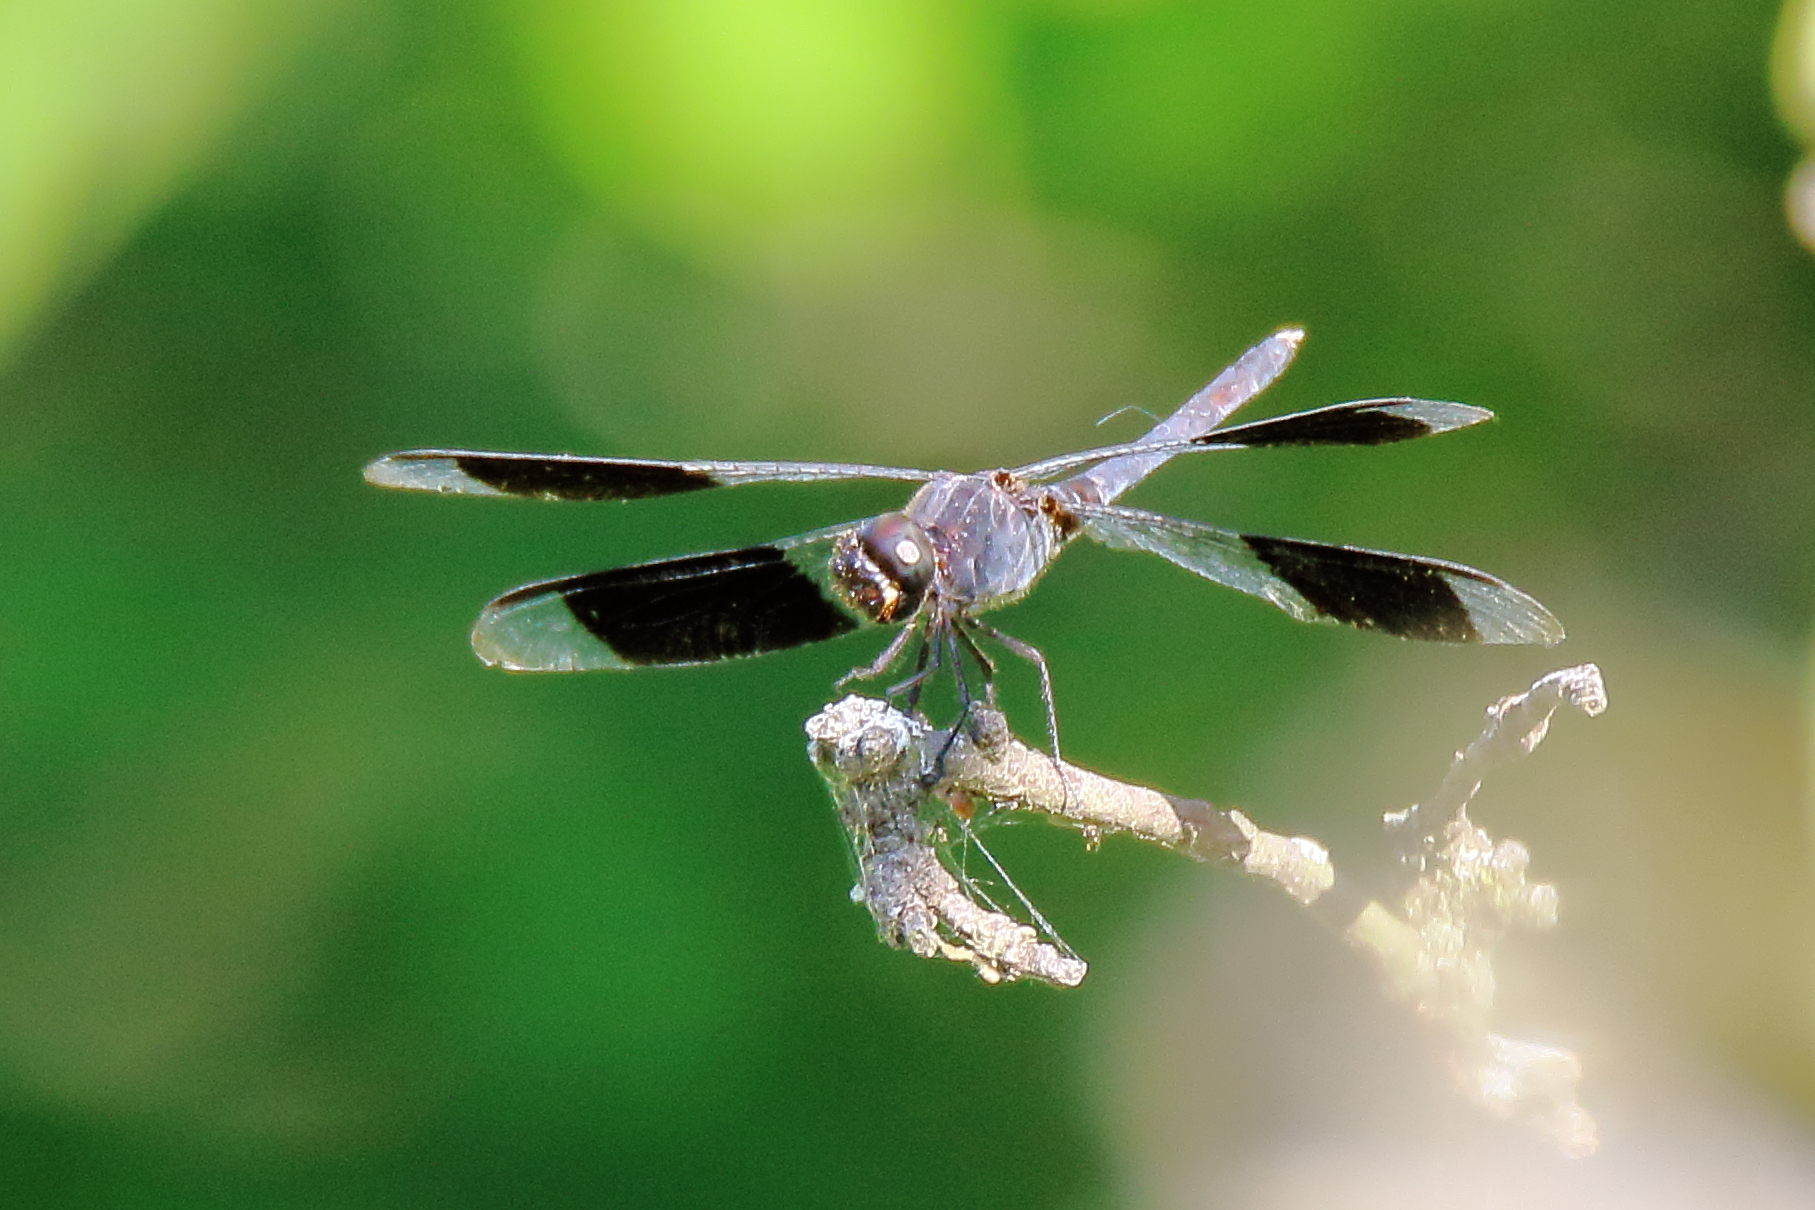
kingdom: Animalia
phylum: Arthropoda
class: Insecta
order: Odonata
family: Libellulidae
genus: Erythrodiplax
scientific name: Erythrodiplax umbrata
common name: Band-winged dragonlet
